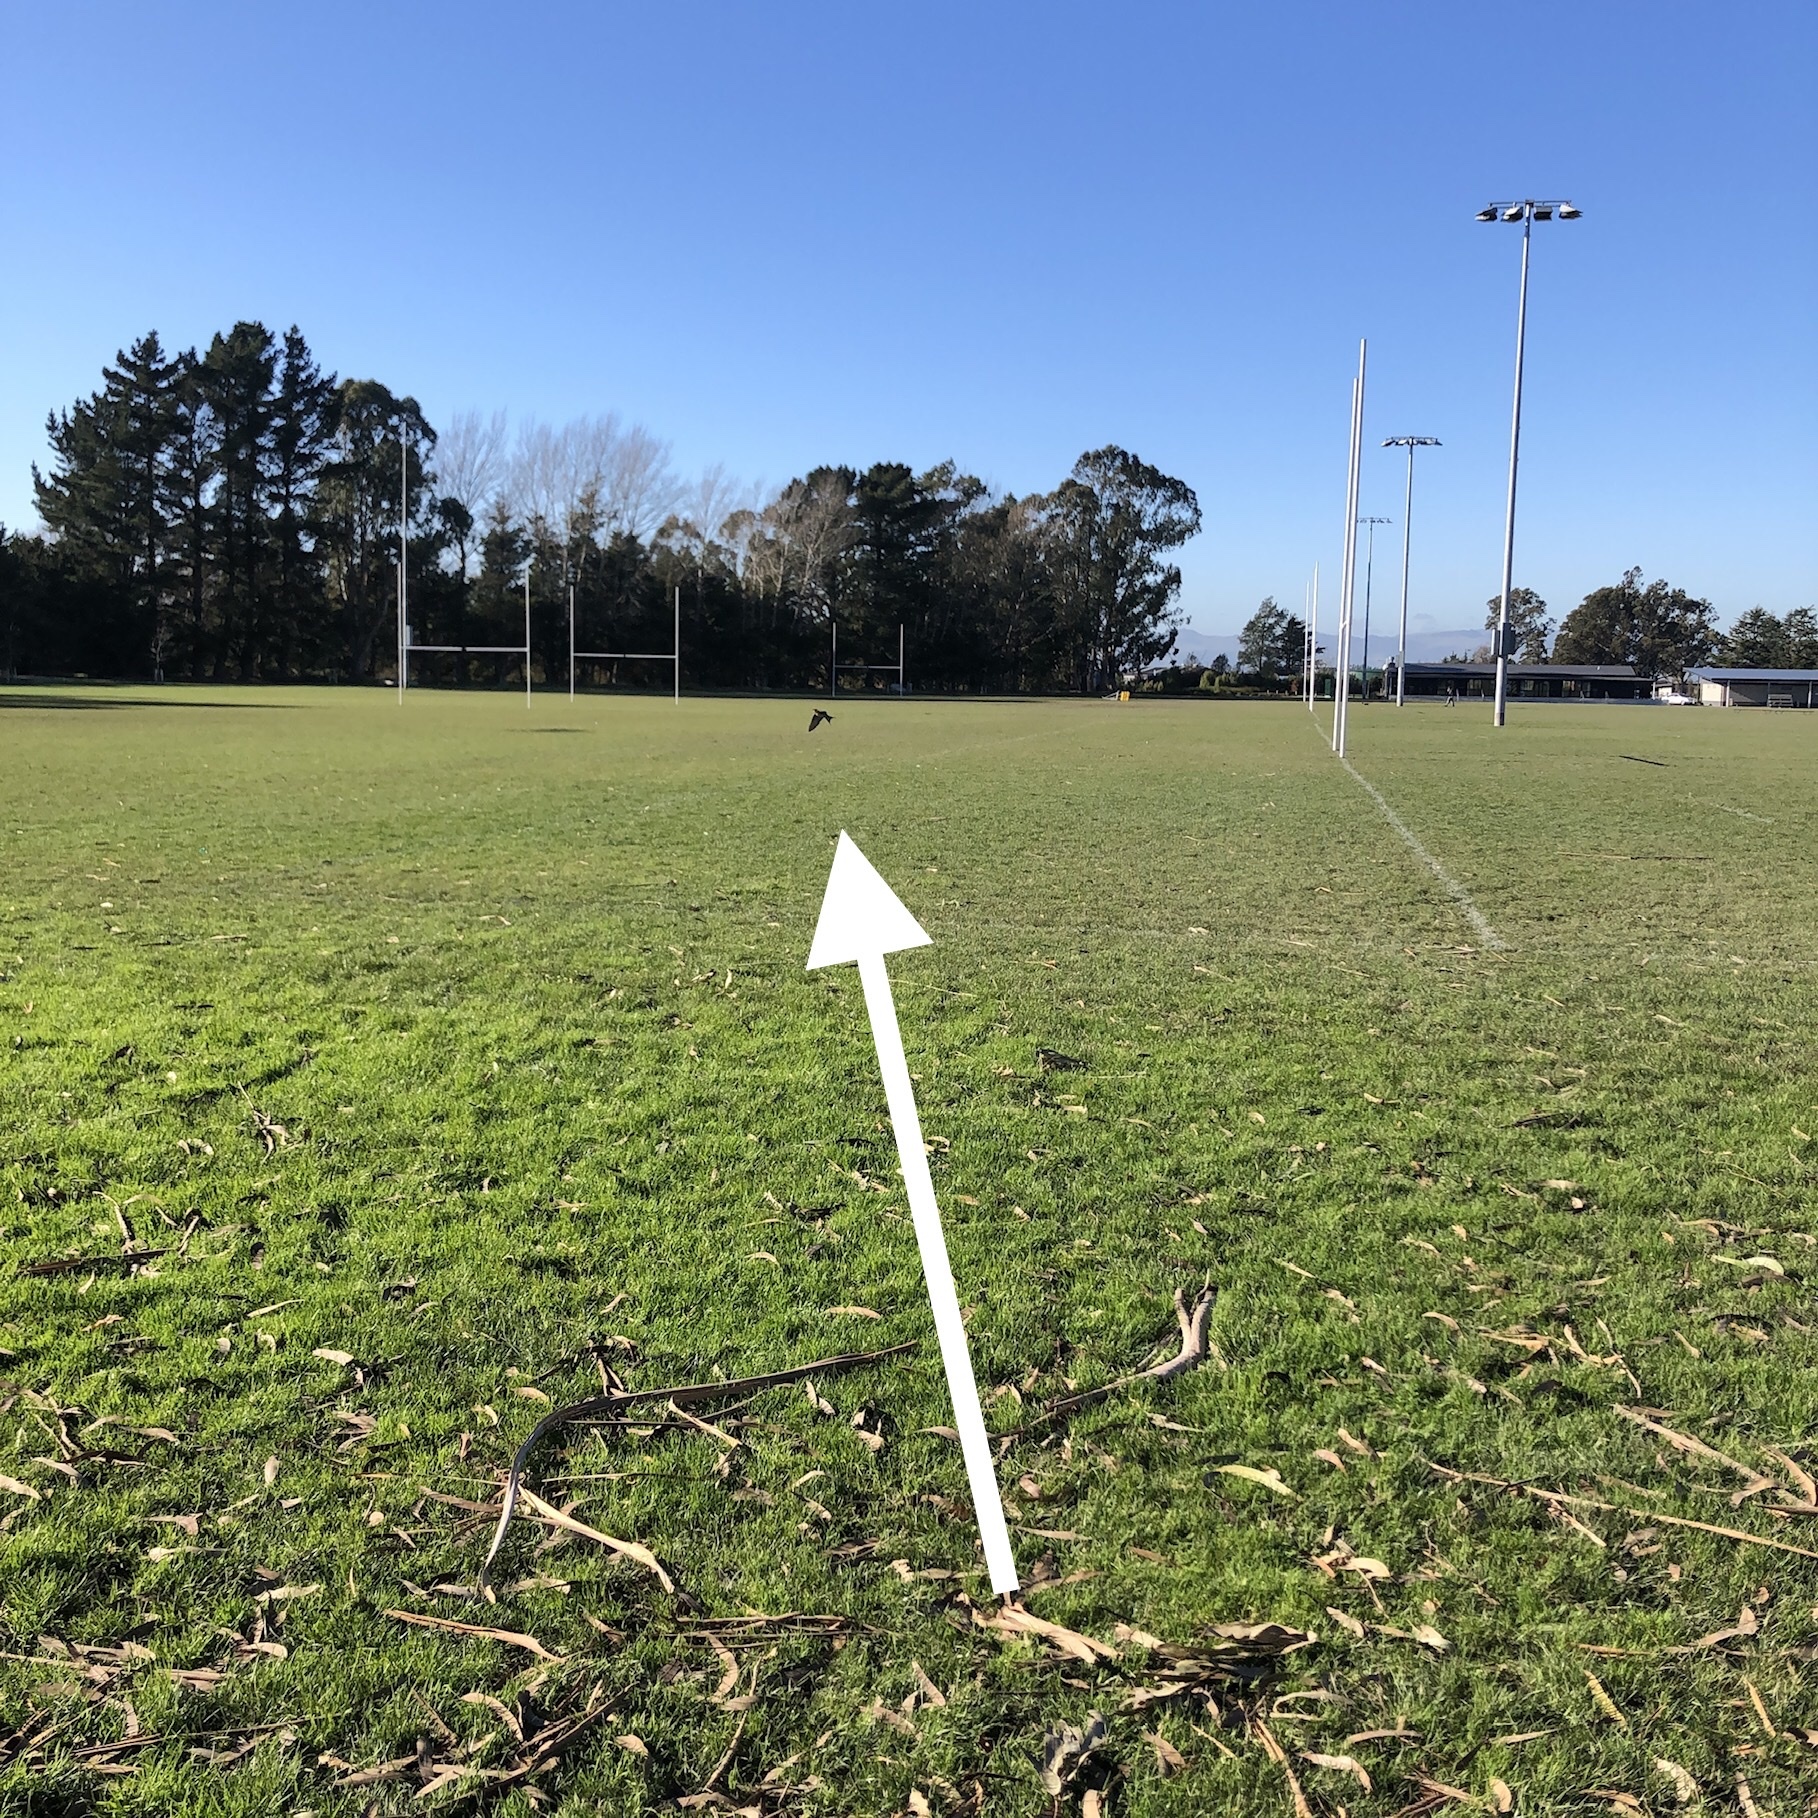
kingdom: Animalia
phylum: Chordata
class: Aves
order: Passeriformes
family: Hirundinidae
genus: Hirundo
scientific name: Hirundo neoxena
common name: Welcome swallow
